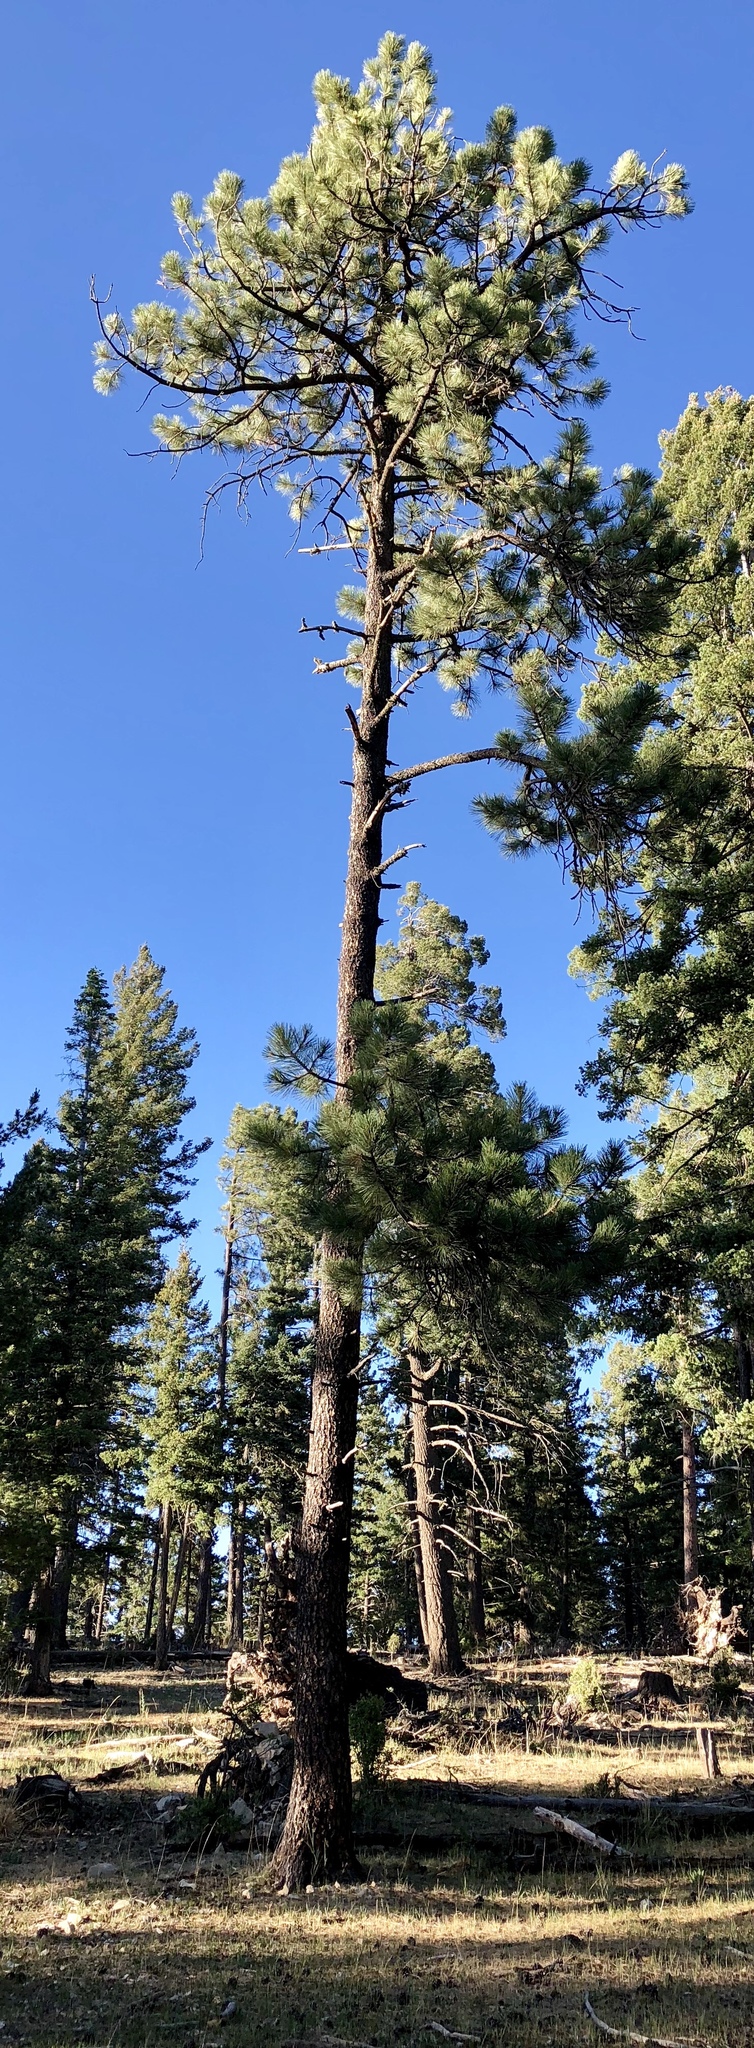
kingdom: Plantae
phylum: Tracheophyta
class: Pinopsida
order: Pinales
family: Pinaceae
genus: Pinus
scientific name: Pinus ponderosa
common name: Western yellow-pine
